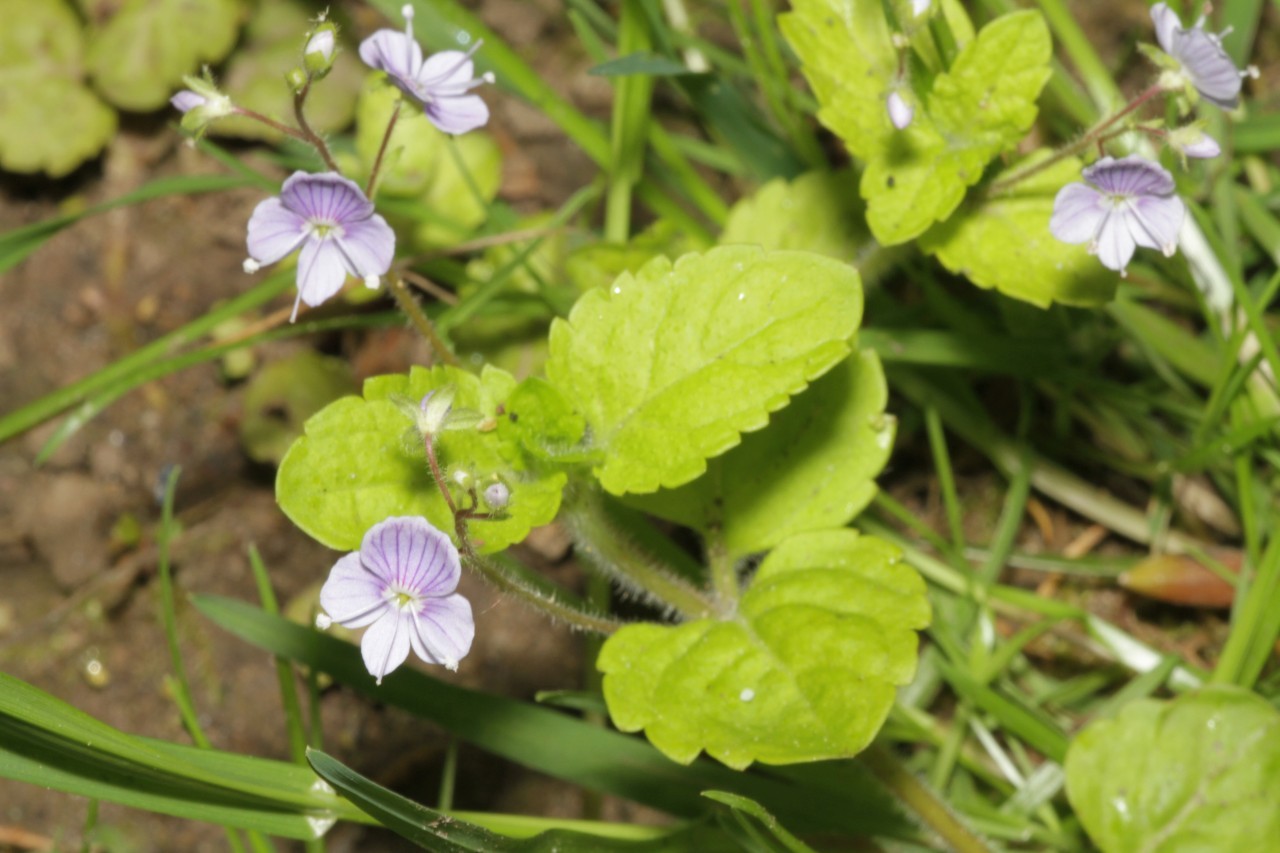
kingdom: Plantae
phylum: Tracheophyta
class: Magnoliopsida
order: Lamiales
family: Plantaginaceae
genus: Veronica
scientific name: Veronica montana
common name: Wood speedwell
